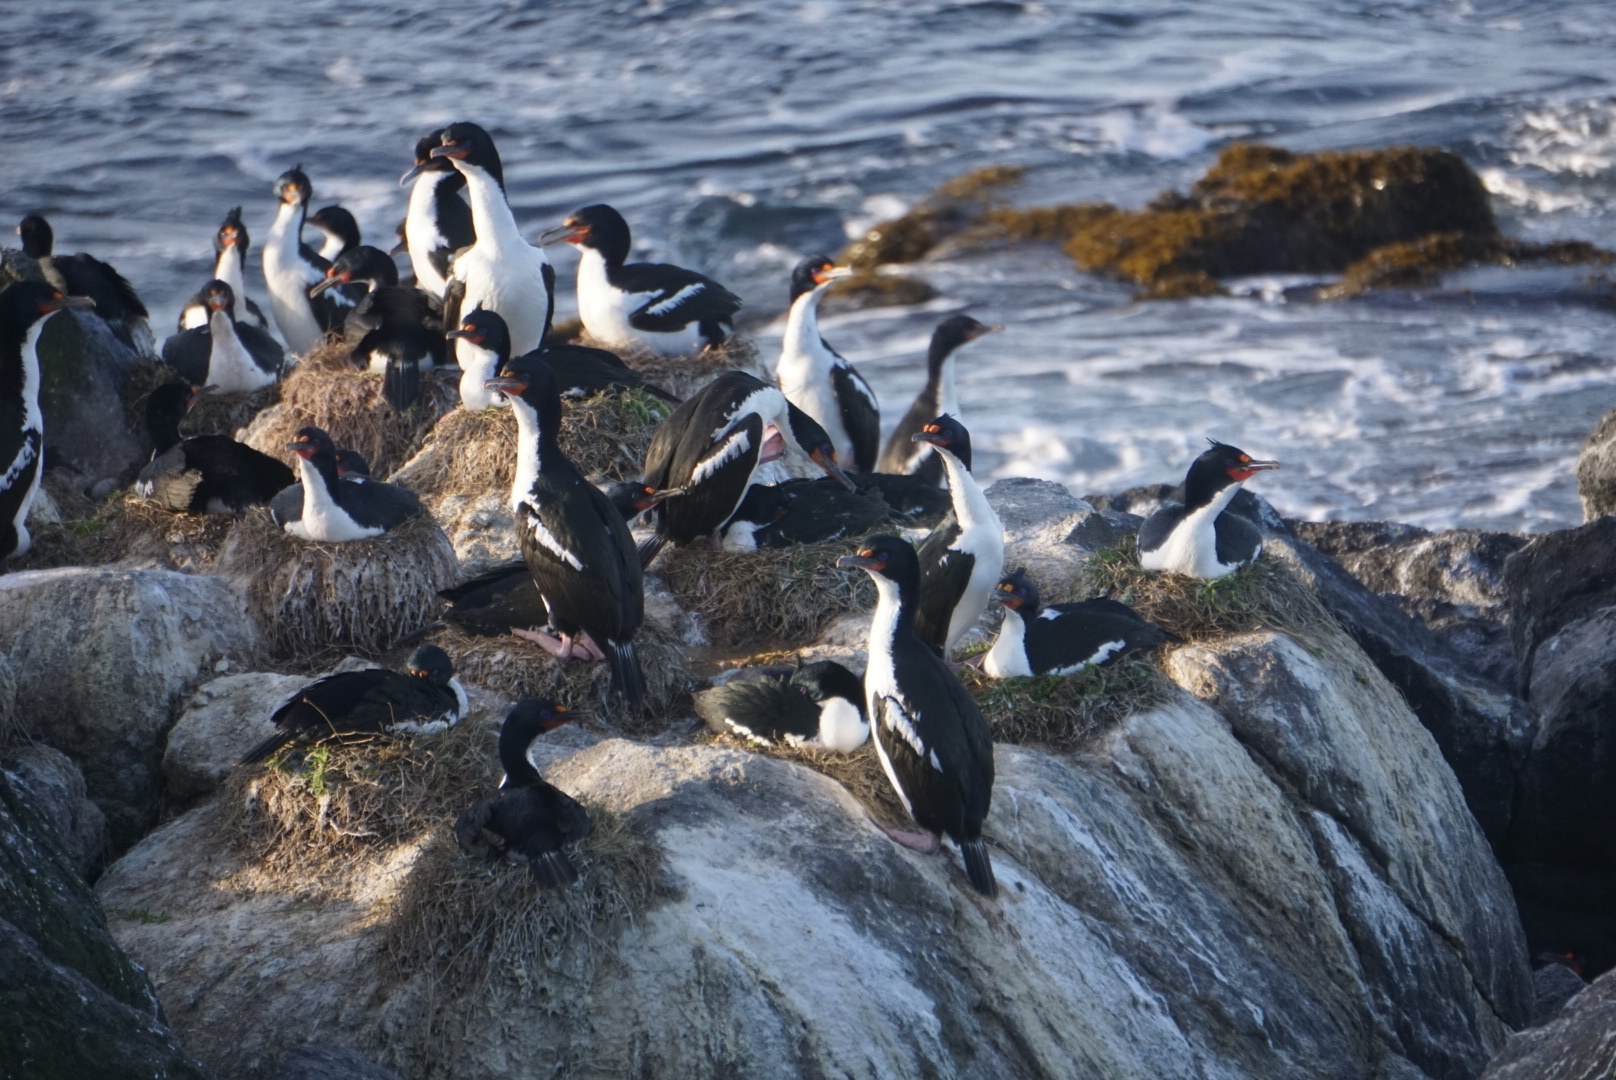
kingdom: Animalia
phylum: Chordata
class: Aves
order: Suliformes
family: Phalacrocoracidae
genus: Leucocarbo
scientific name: Leucocarbo onslowi
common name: Chatham shag
